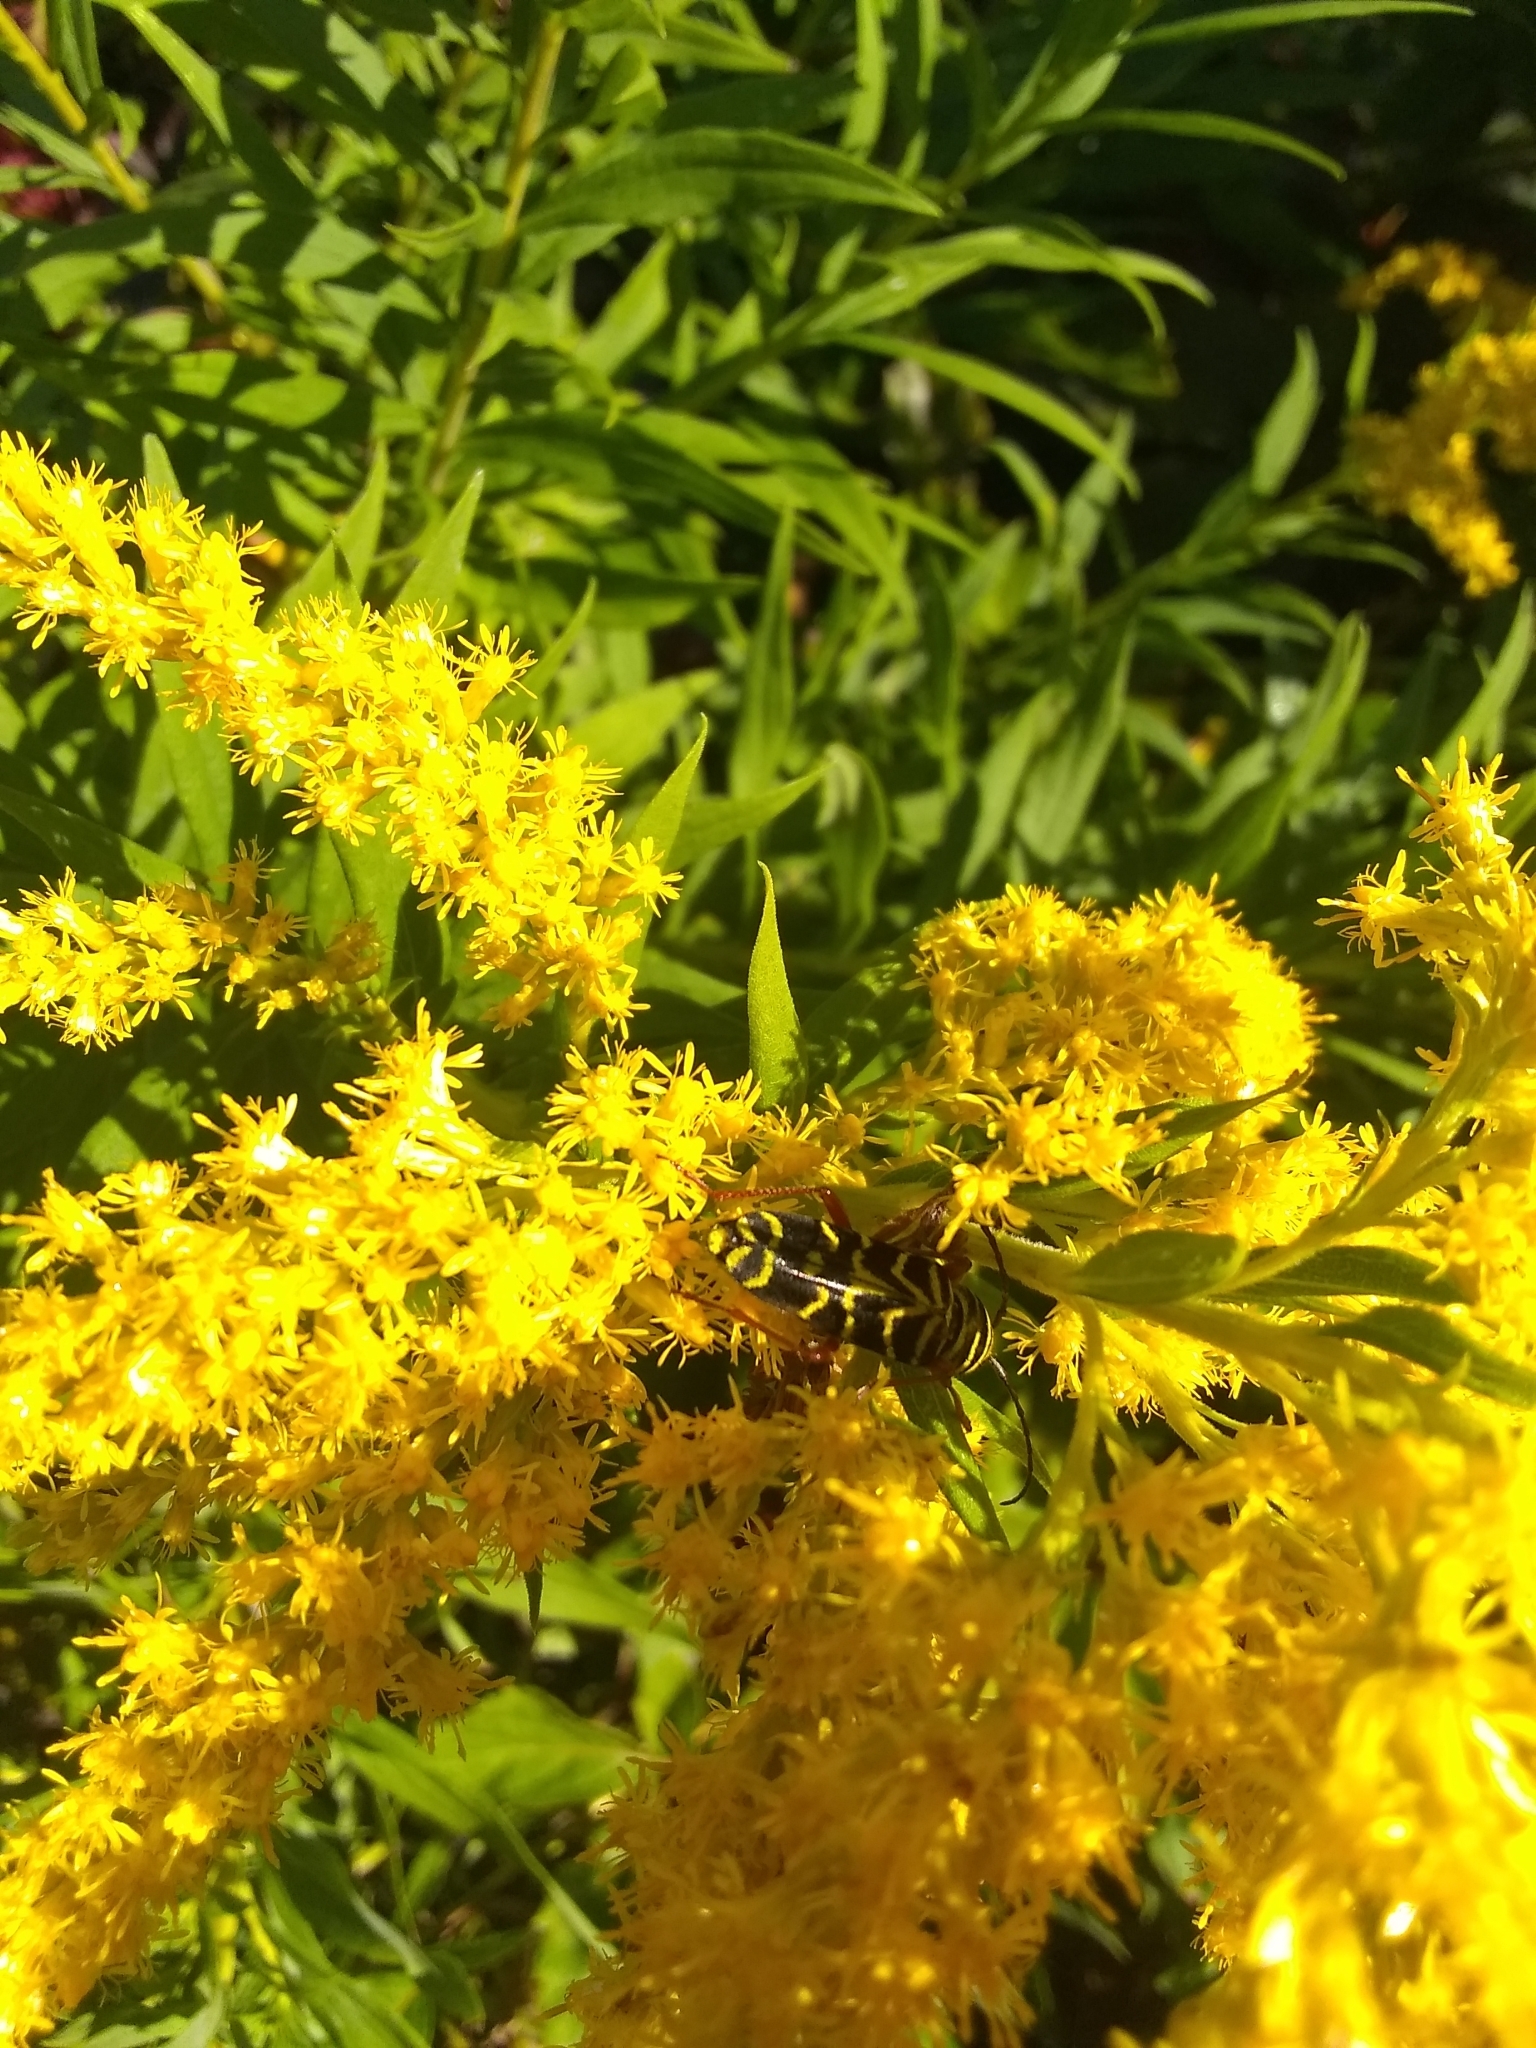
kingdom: Animalia
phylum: Arthropoda
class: Insecta
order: Coleoptera
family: Cerambycidae
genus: Megacyllene
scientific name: Megacyllene robiniae
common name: Locust borer
